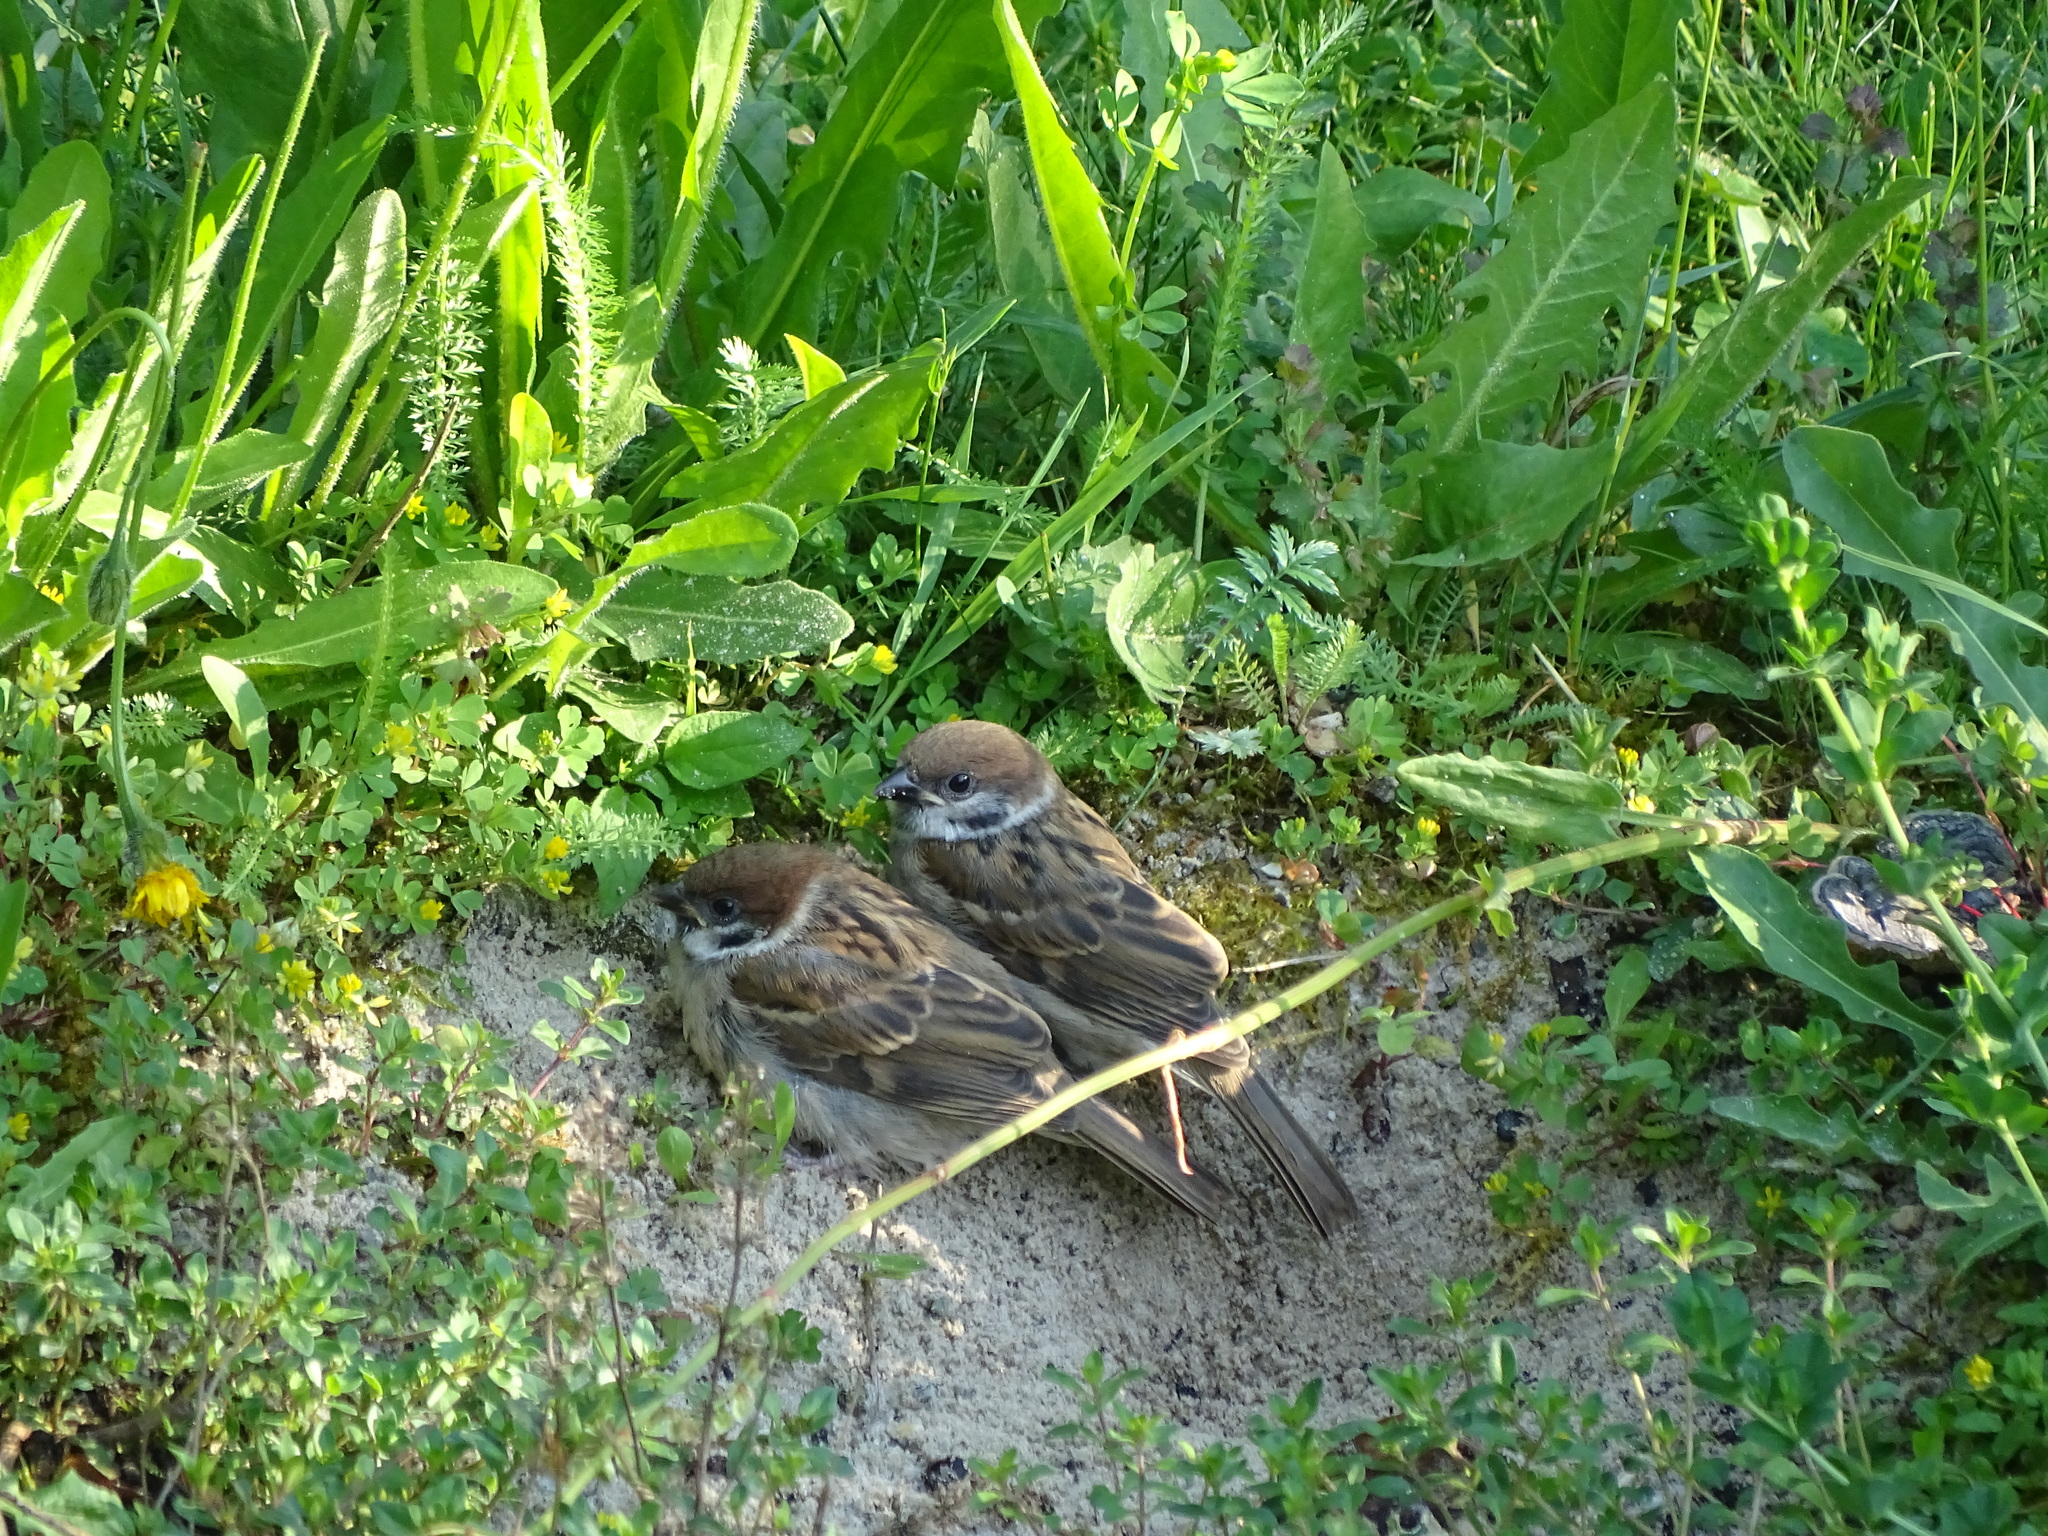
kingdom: Animalia
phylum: Chordata
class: Aves
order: Passeriformes
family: Passeridae
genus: Passer
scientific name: Passer montanus
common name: Eurasian tree sparrow
